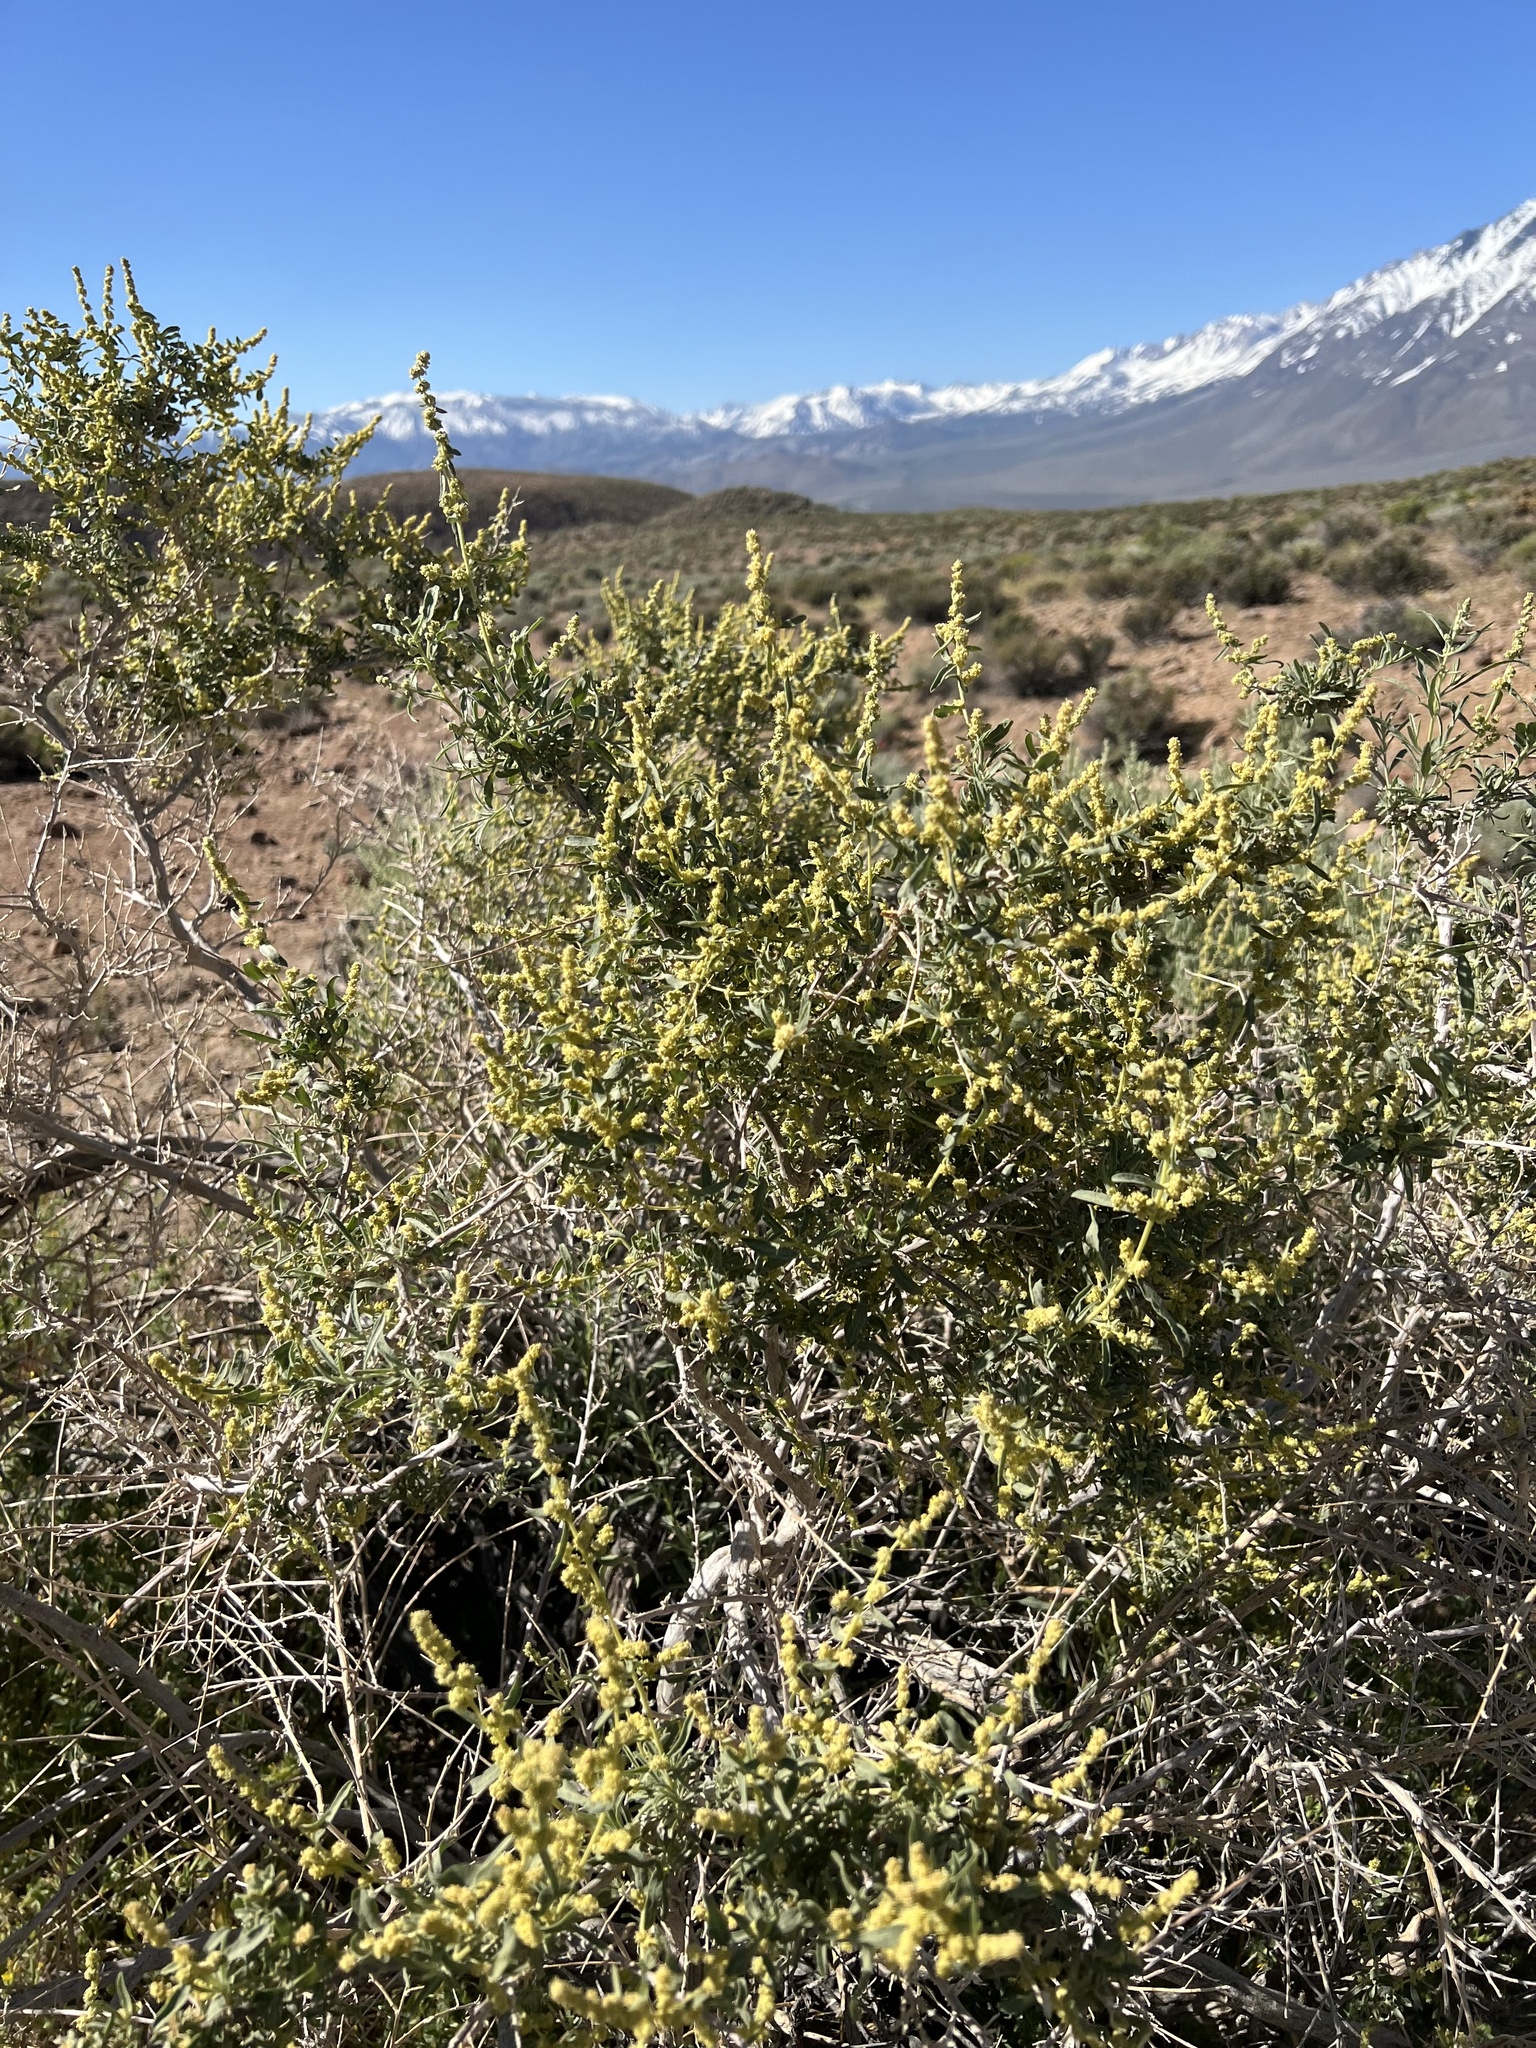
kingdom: Plantae
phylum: Tracheophyta
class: Magnoliopsida
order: Caryophyllales
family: Amaranthaceae
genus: Atriplex
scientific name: Atriplex canescens
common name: Four-wing saltbush
